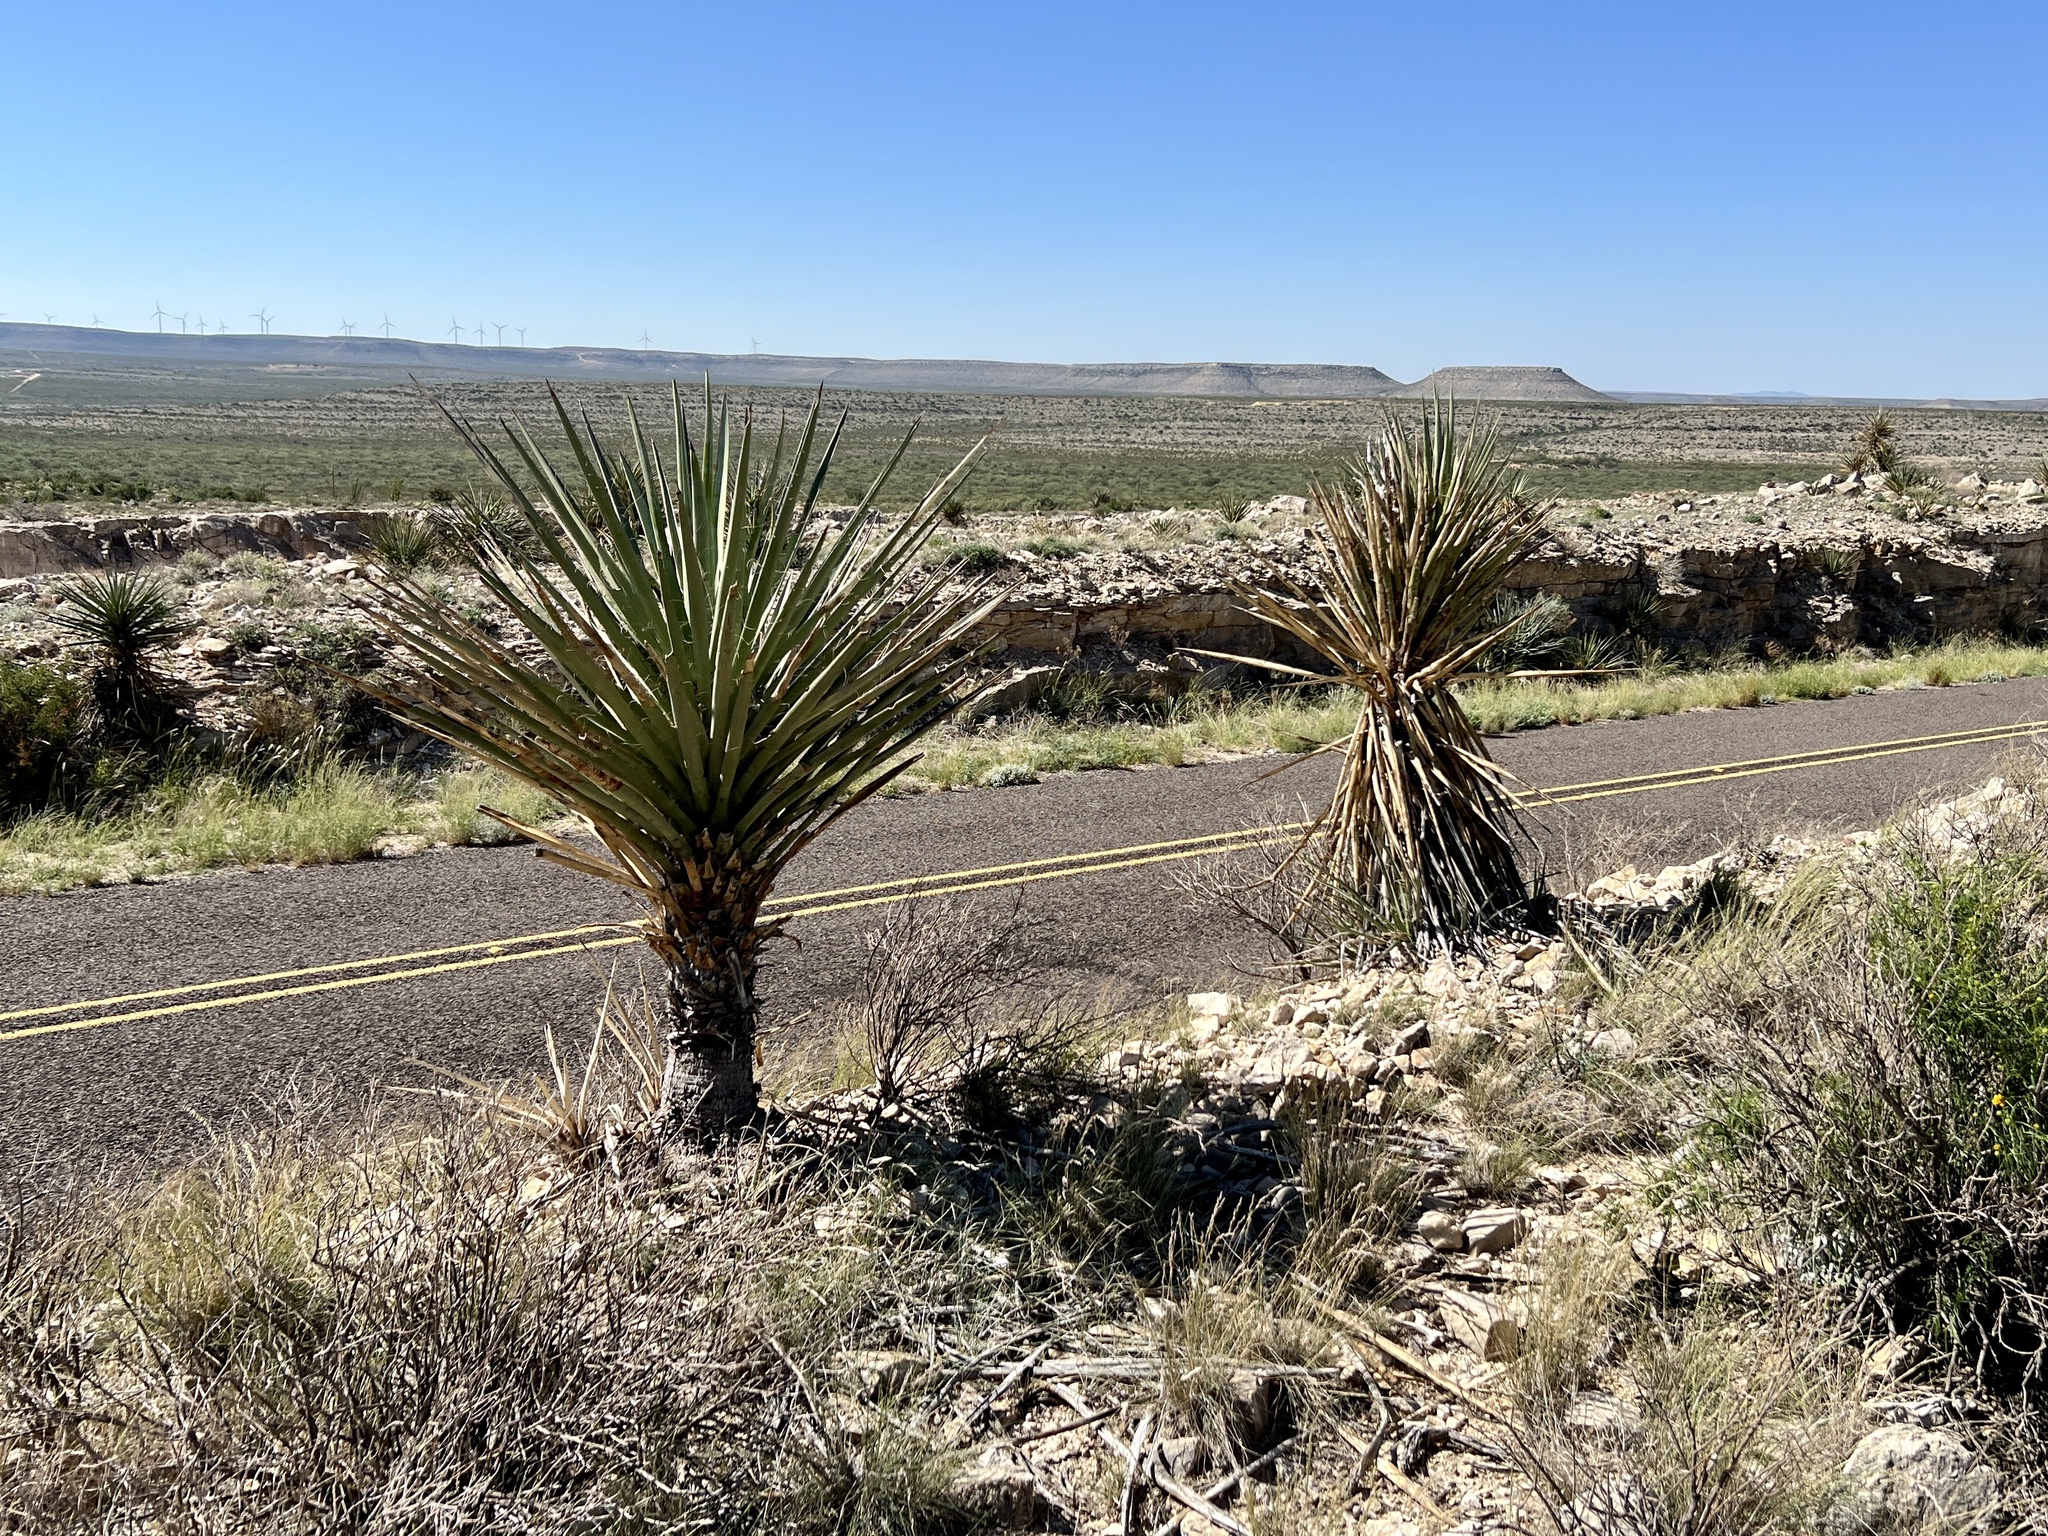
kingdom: Plantae
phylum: Tracheophyta
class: Liliopsida
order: Asparagales
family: Asparagaceae
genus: Yucca
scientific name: Yucca treculiana
